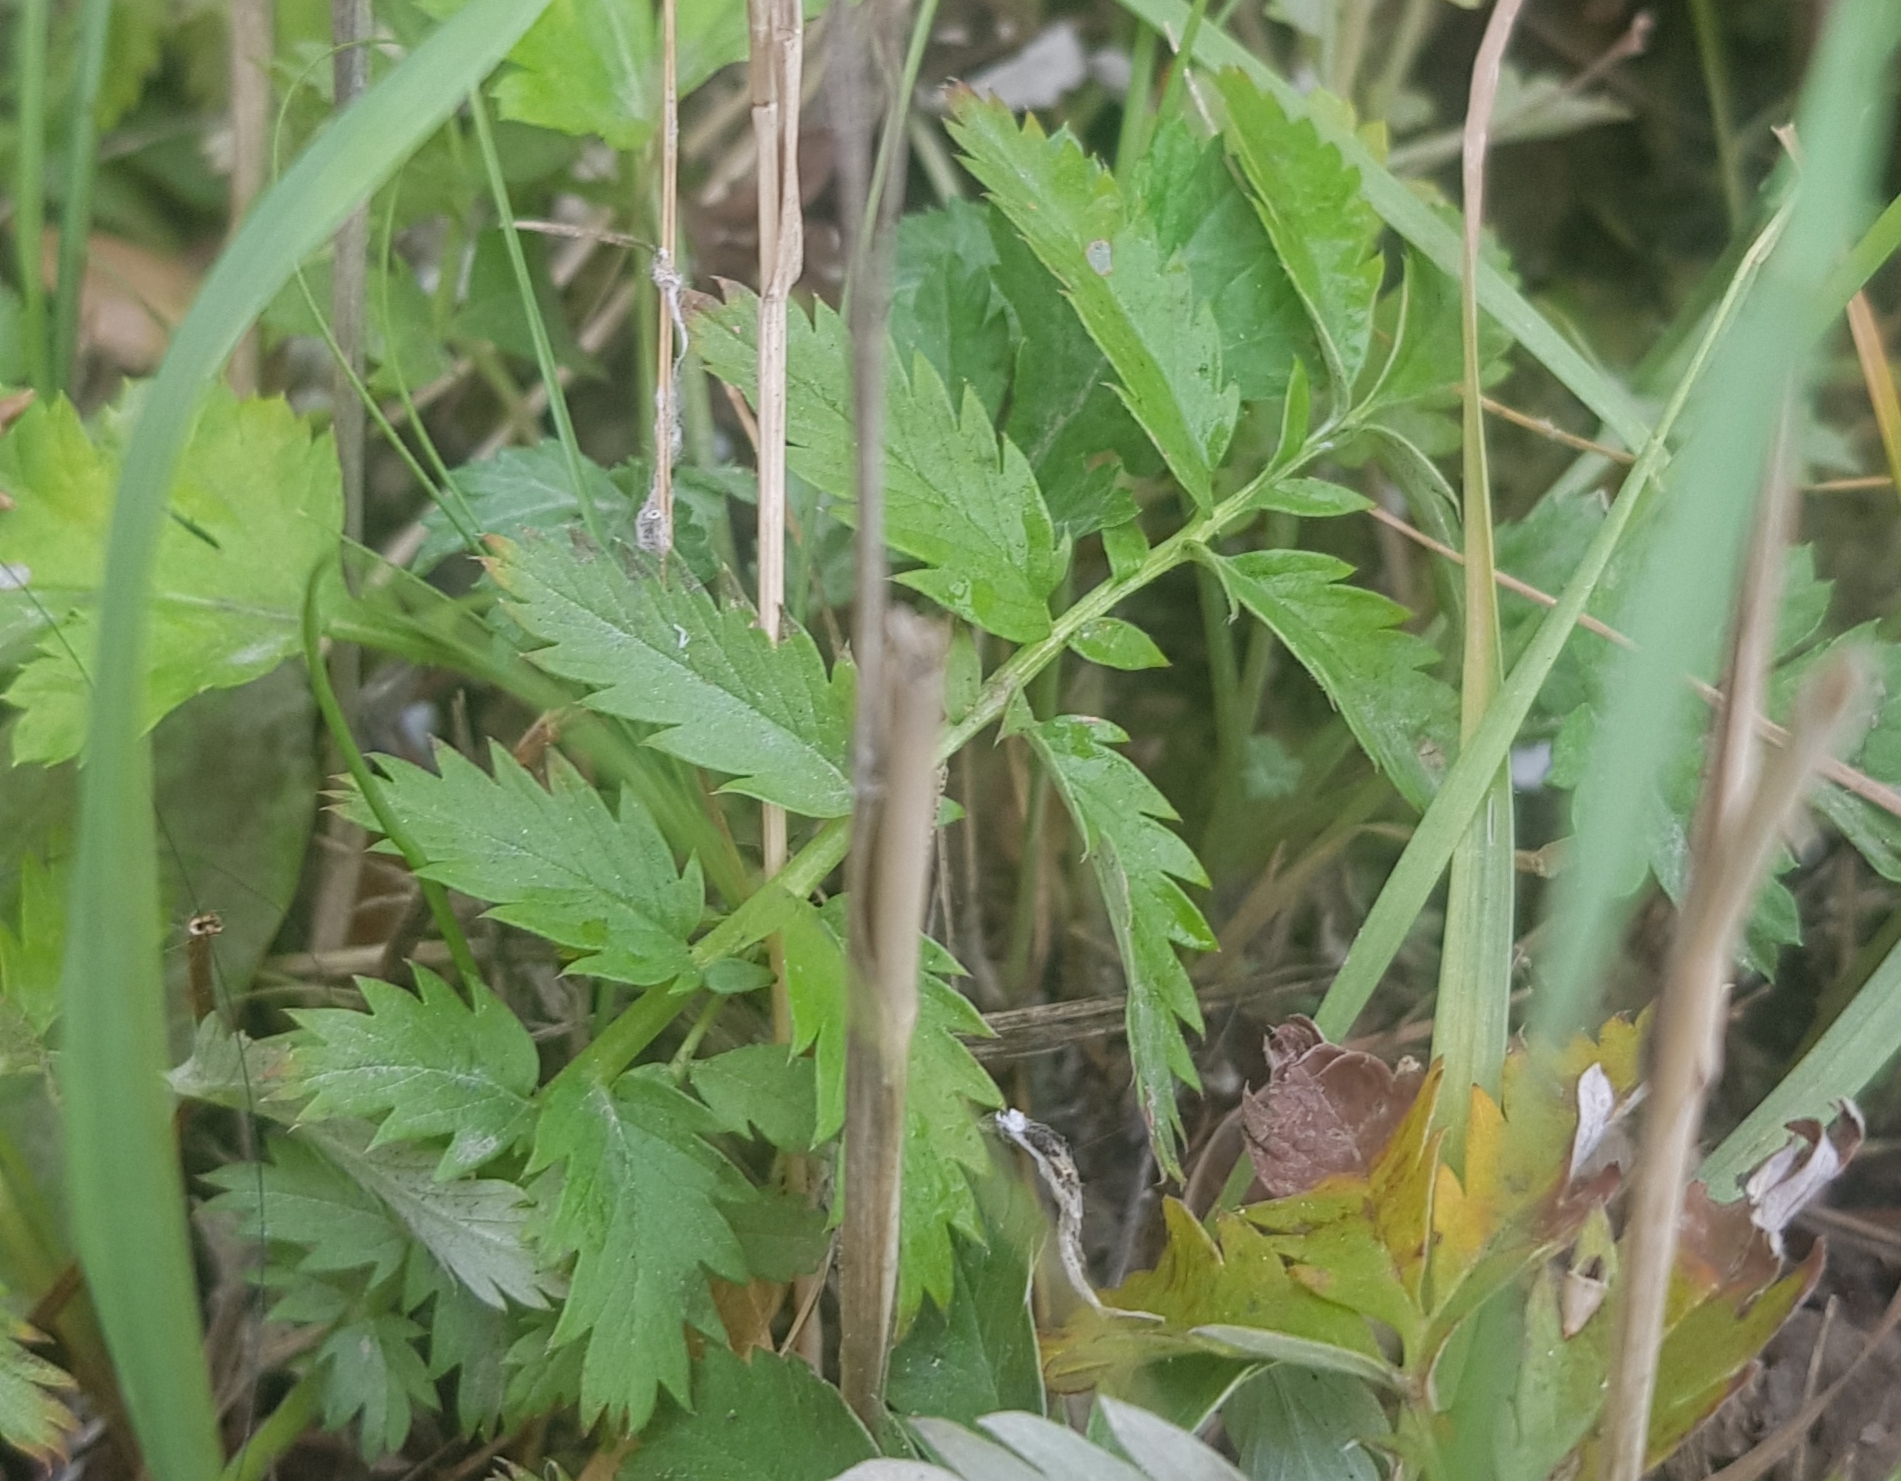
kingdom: Plantae
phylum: Tracheophyta
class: Magnoliopsida
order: Rosales
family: Rosaceae
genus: Argentina
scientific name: Argentina anserina
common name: Common silverweed
